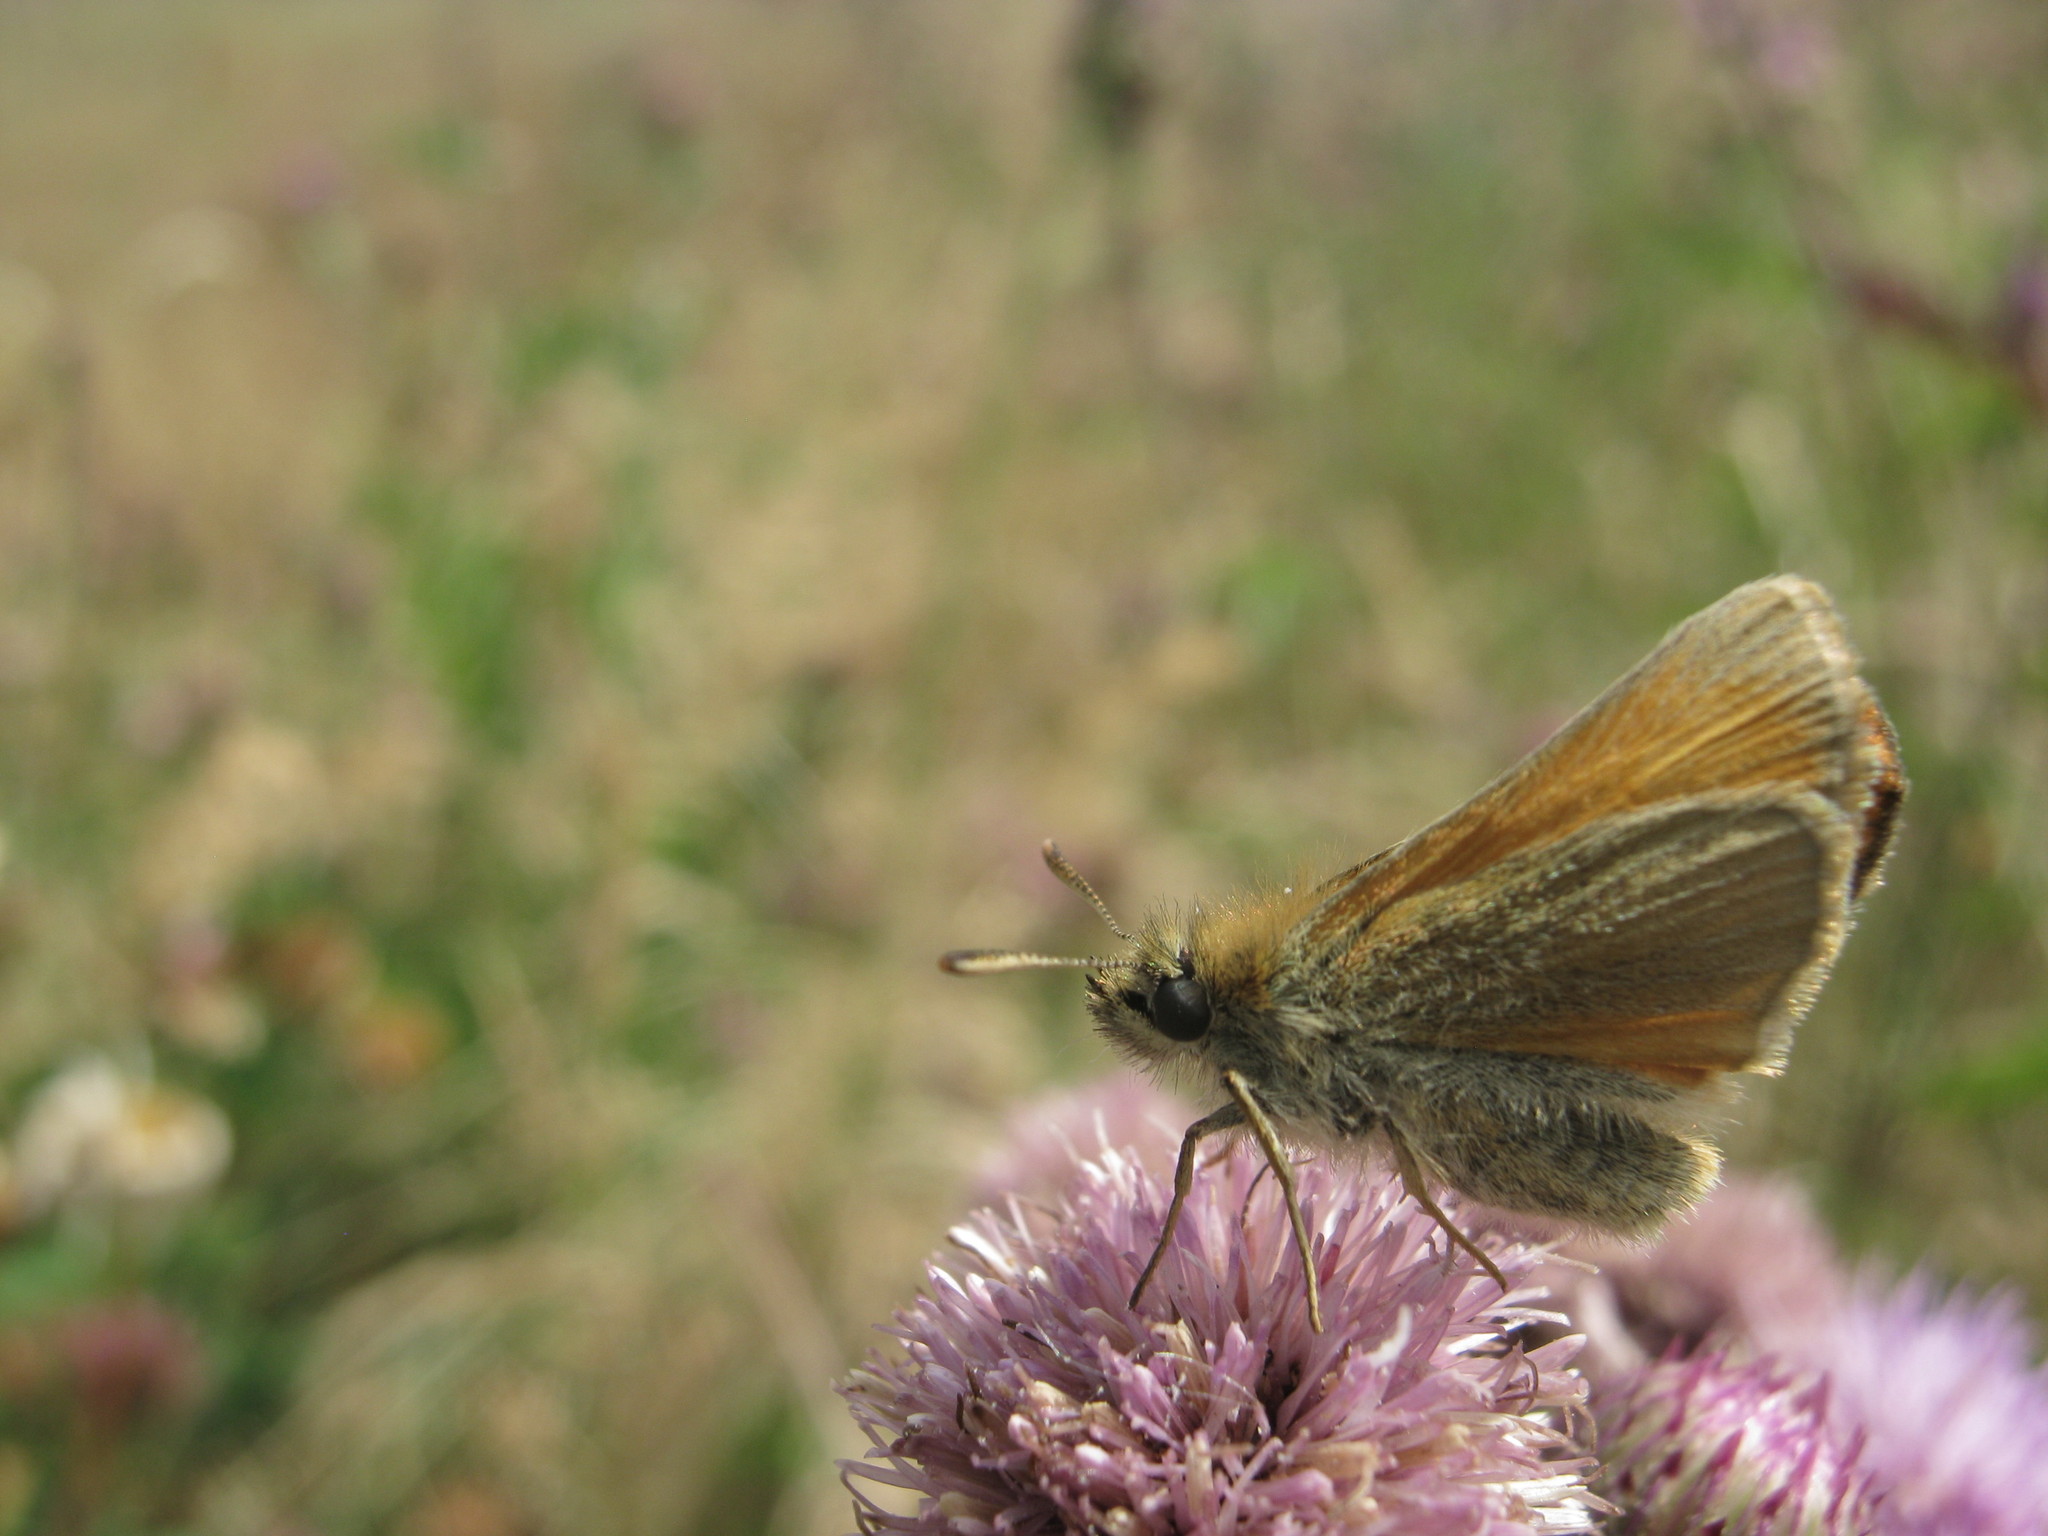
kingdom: Animalia
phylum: Arthropoda
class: Insecta
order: Lepidoptera
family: Hesperiidae
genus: Thymelicus
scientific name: Thymelicus sylvestris
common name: Small skipper
